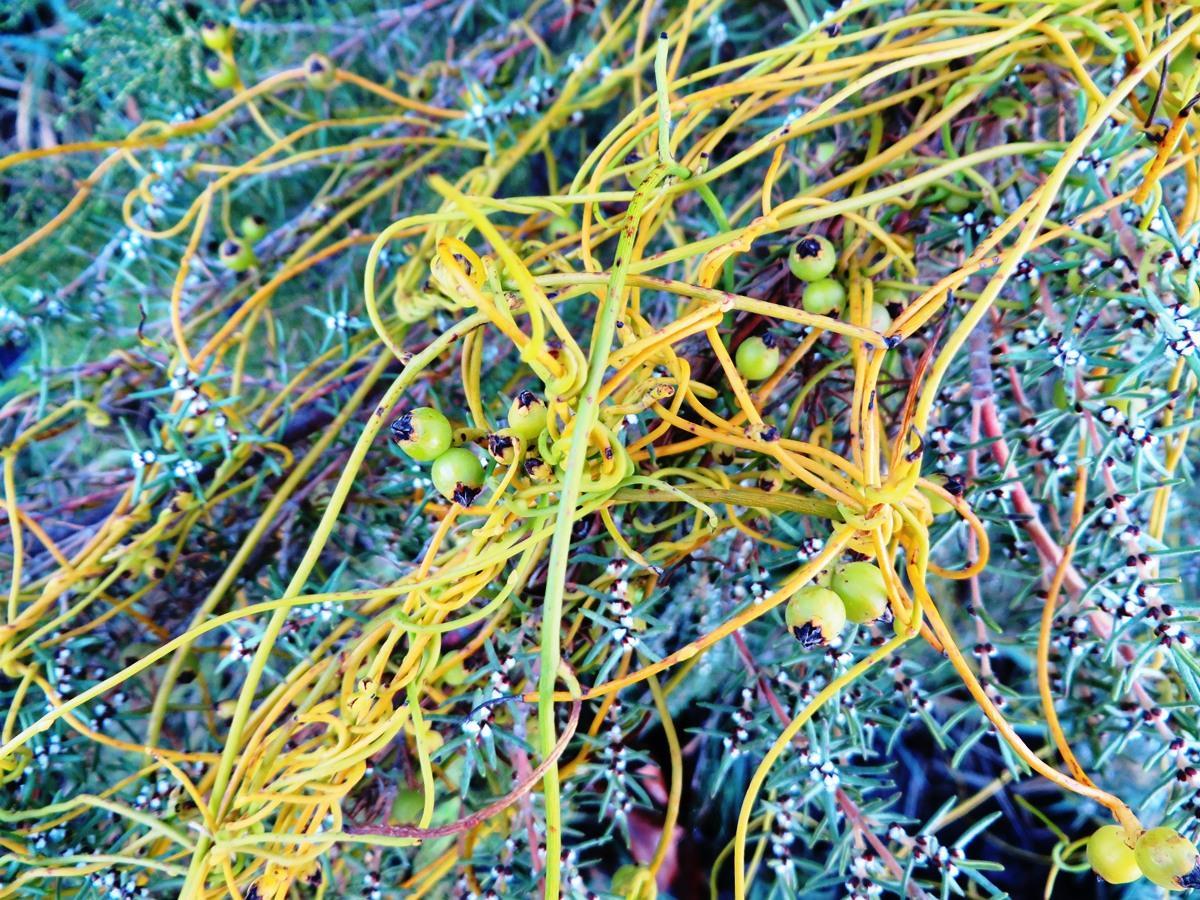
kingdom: Plantae
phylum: Tracheophyta
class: Magnoliopsida
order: Laurales
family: Lauraceae
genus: Cassytha
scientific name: Cassytha ciliolata
